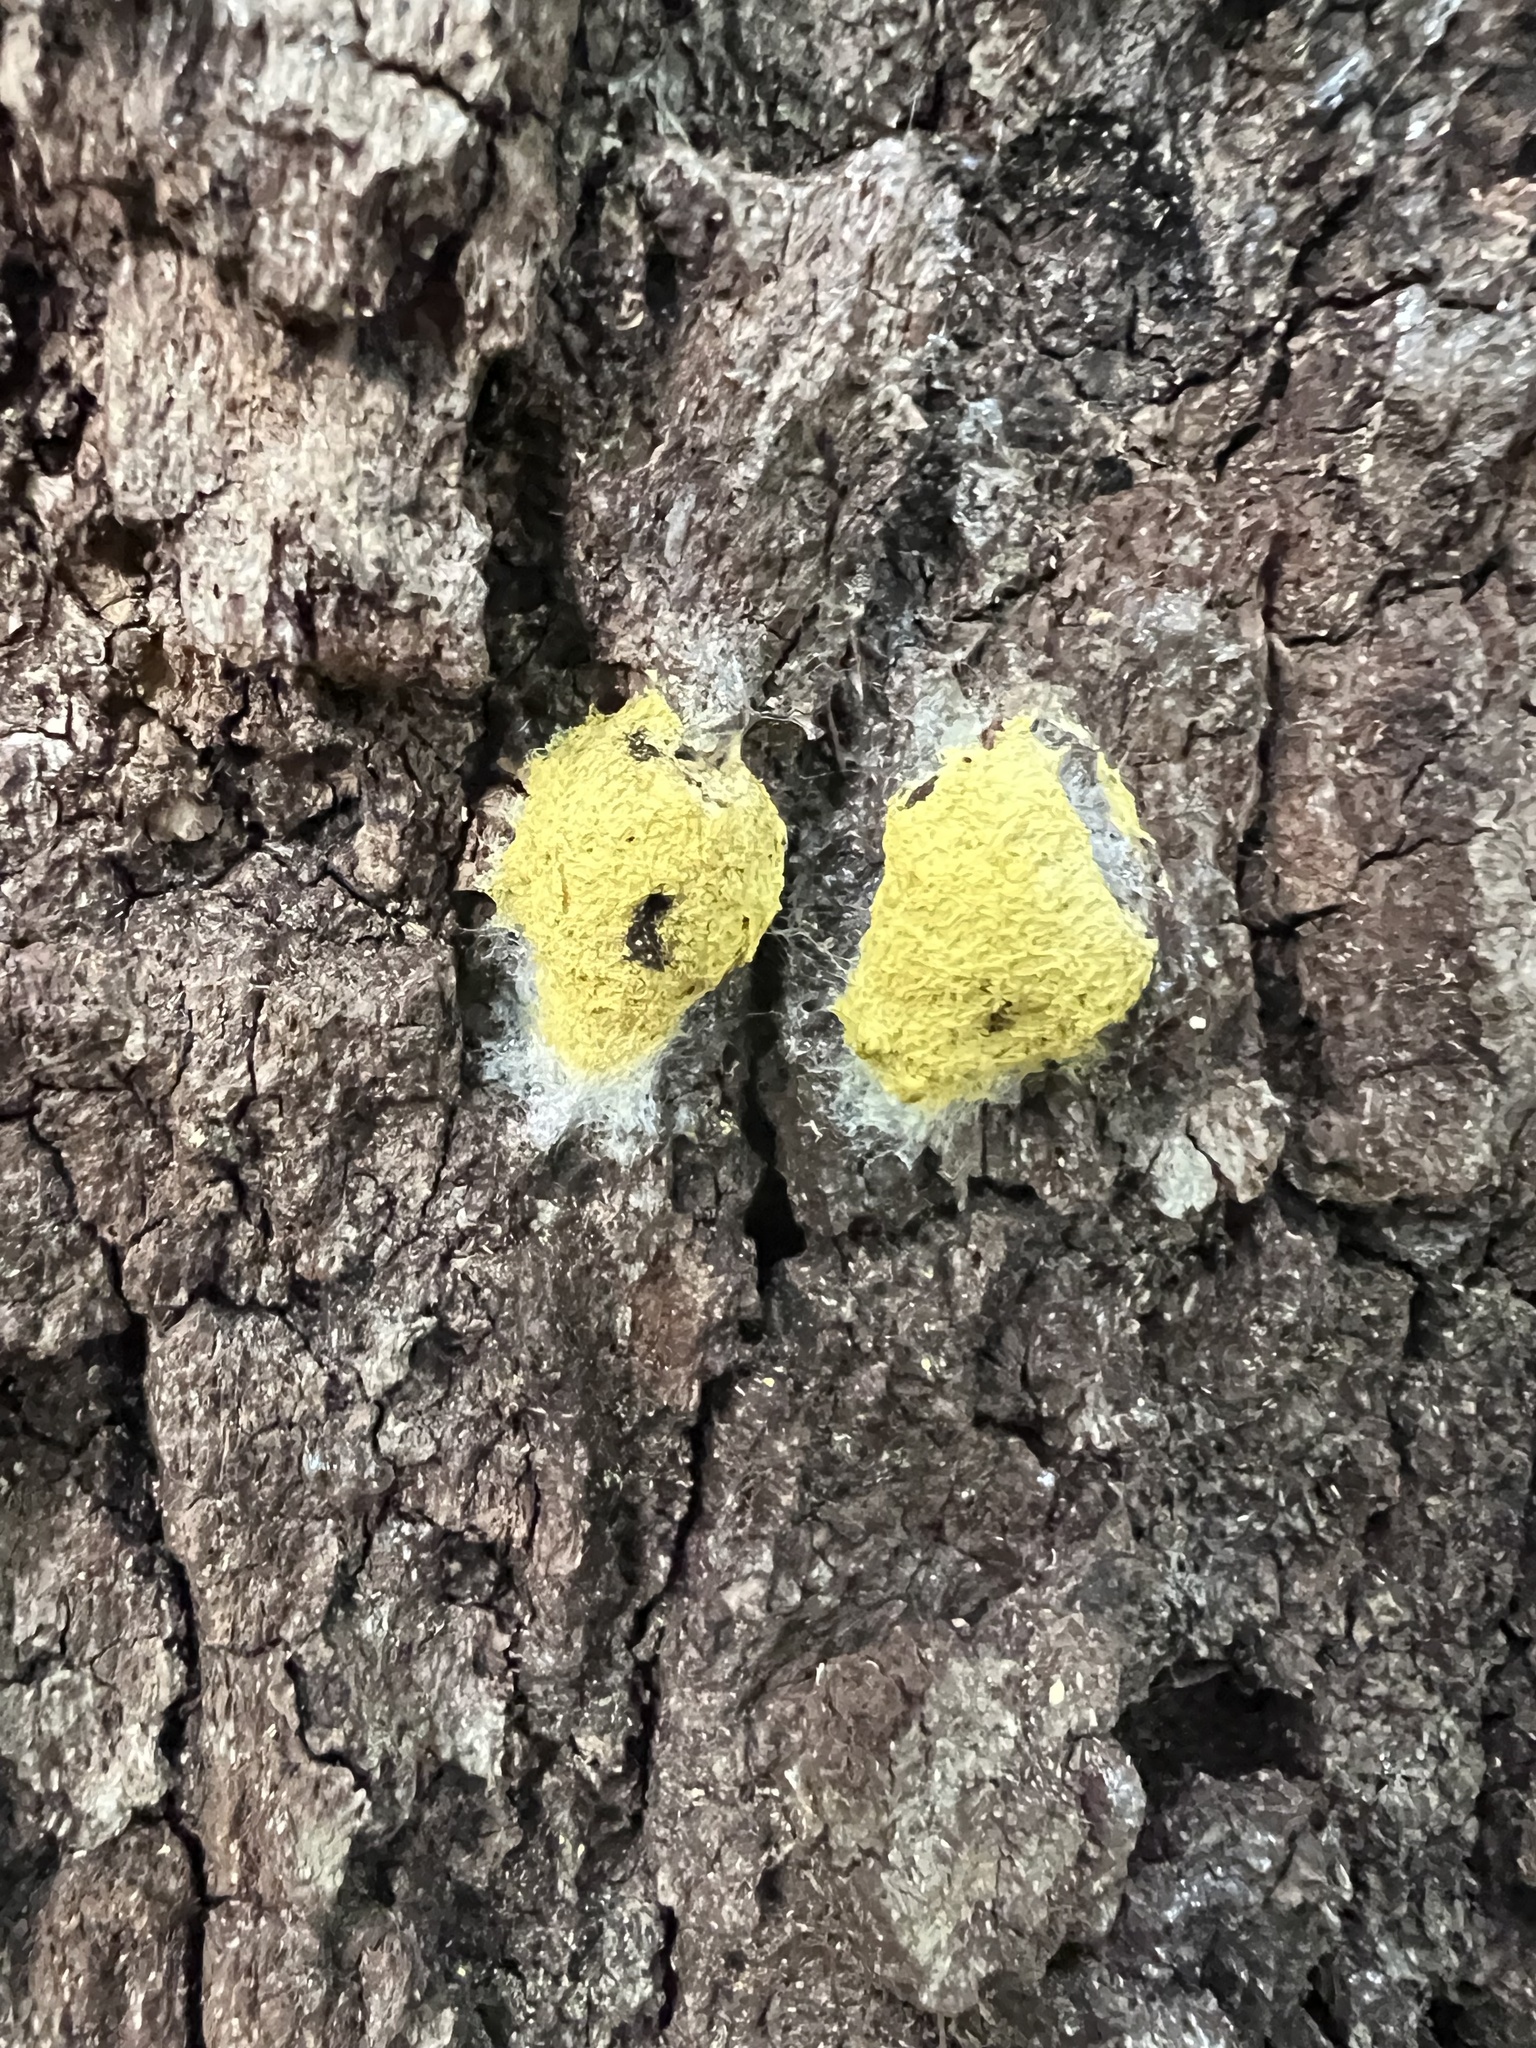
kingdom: Protozoa
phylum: Mycetozoa
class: Myxomycetes
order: Physarales
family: Physaraceae
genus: Fuligo
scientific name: Fuligo septica
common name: Dog vomit slime mold
